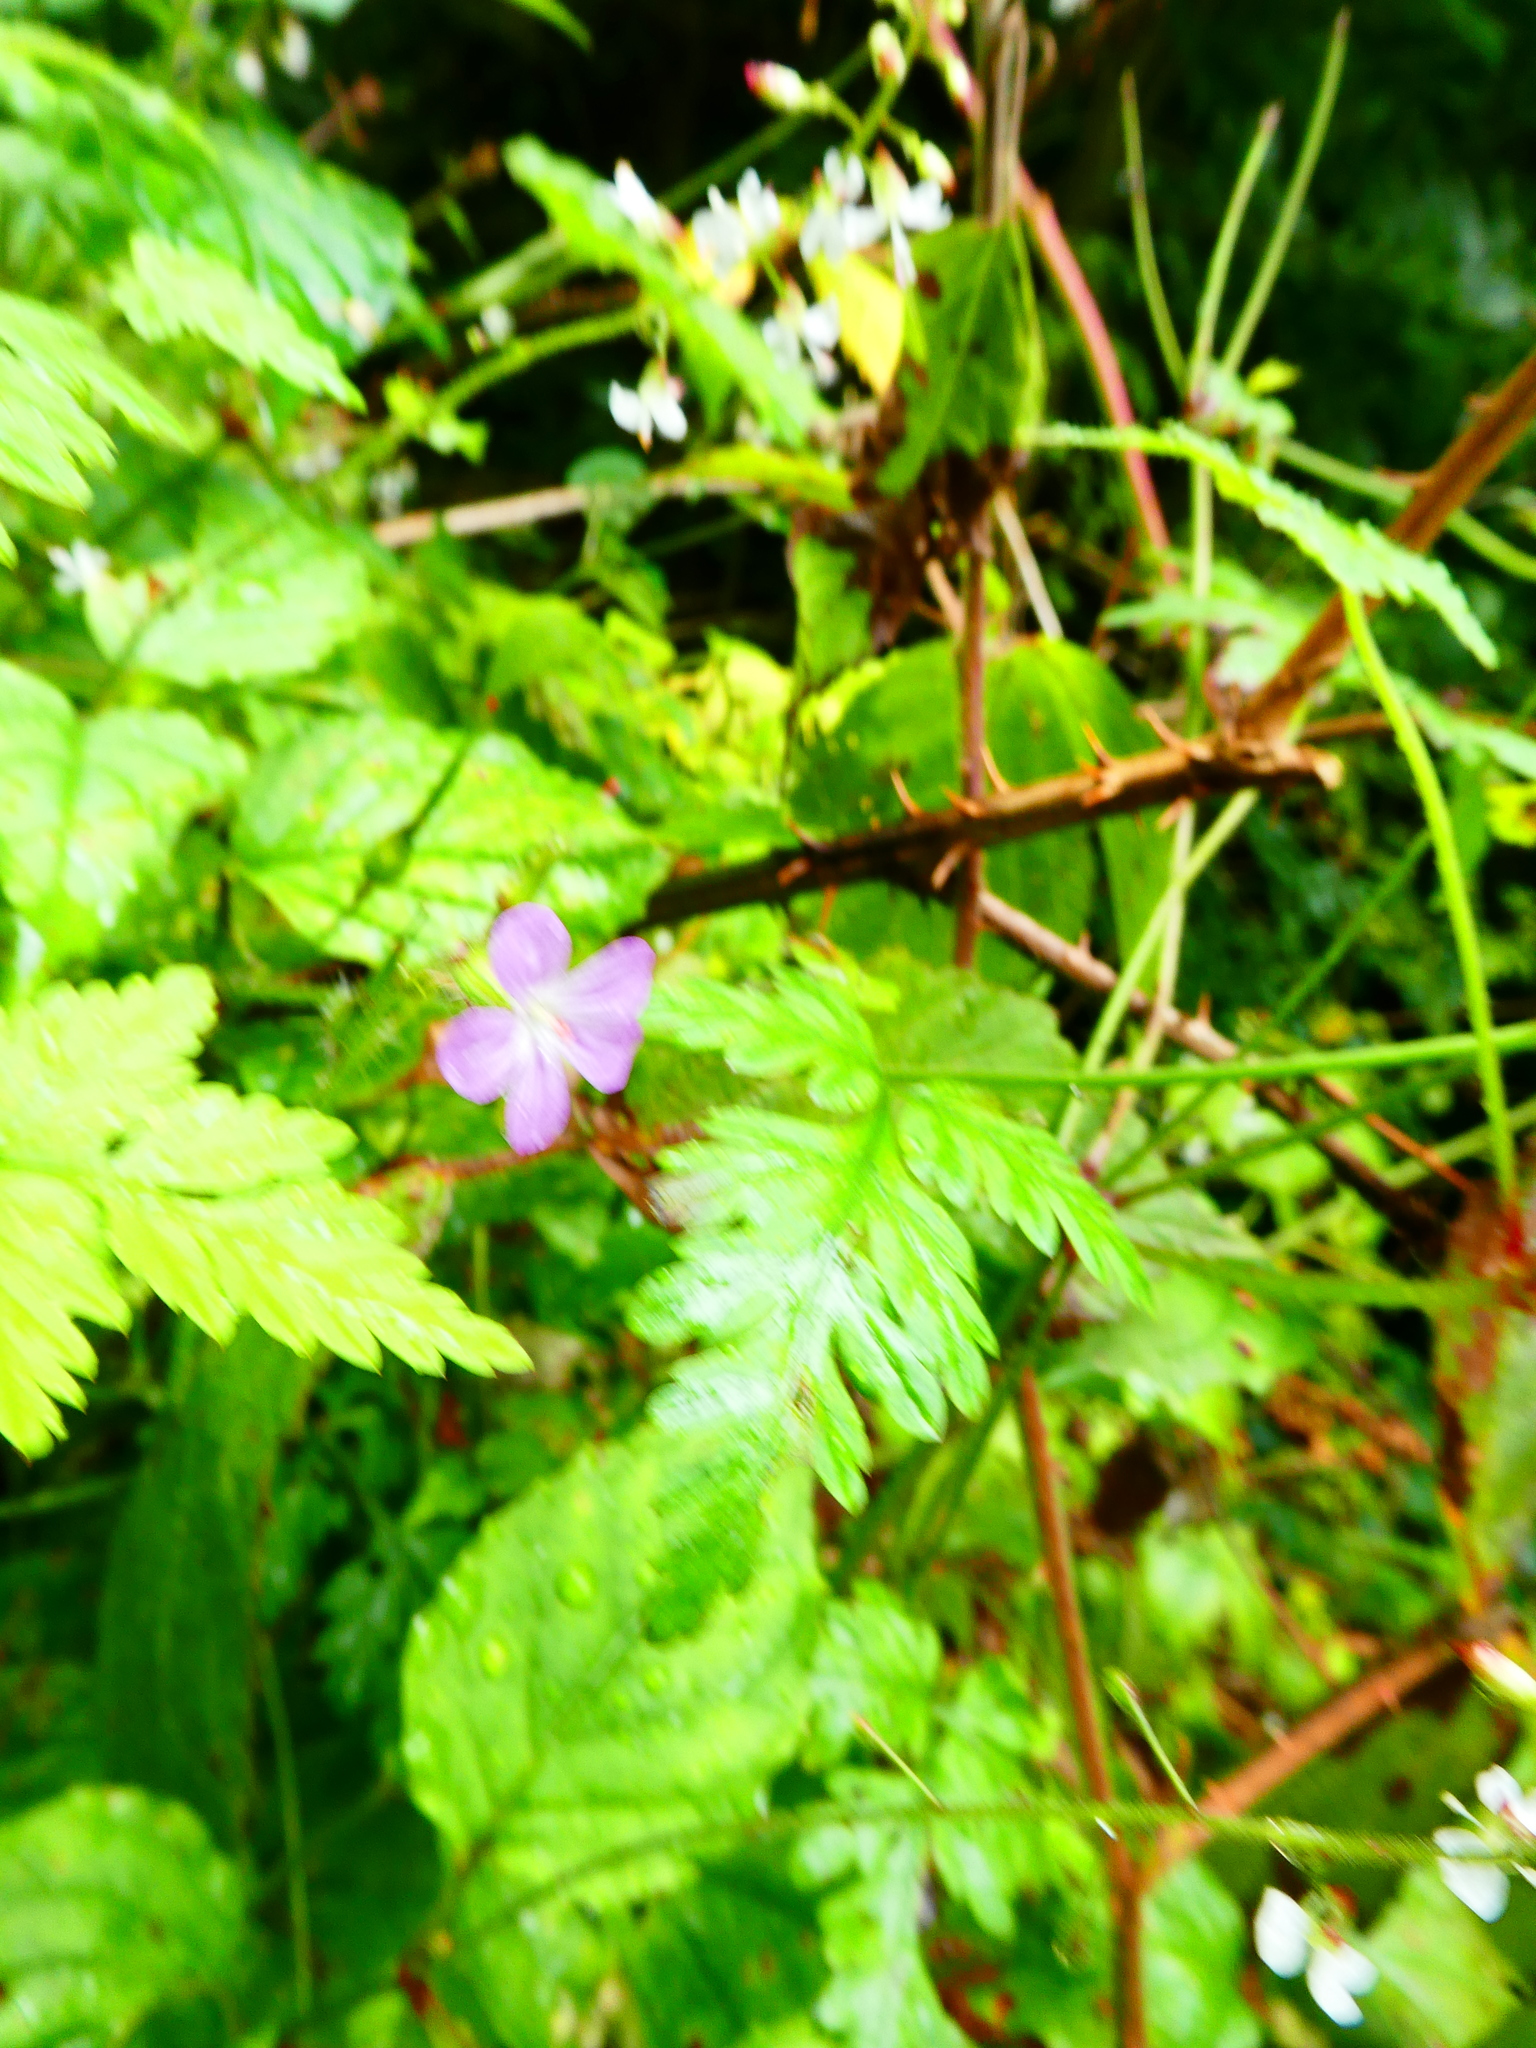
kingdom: Plantae
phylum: Tracheophyta
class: Magnoliopsida
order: Geraniales
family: Geraniaceae
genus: Geranium
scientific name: Geranium robertianum
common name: Herb-robert
